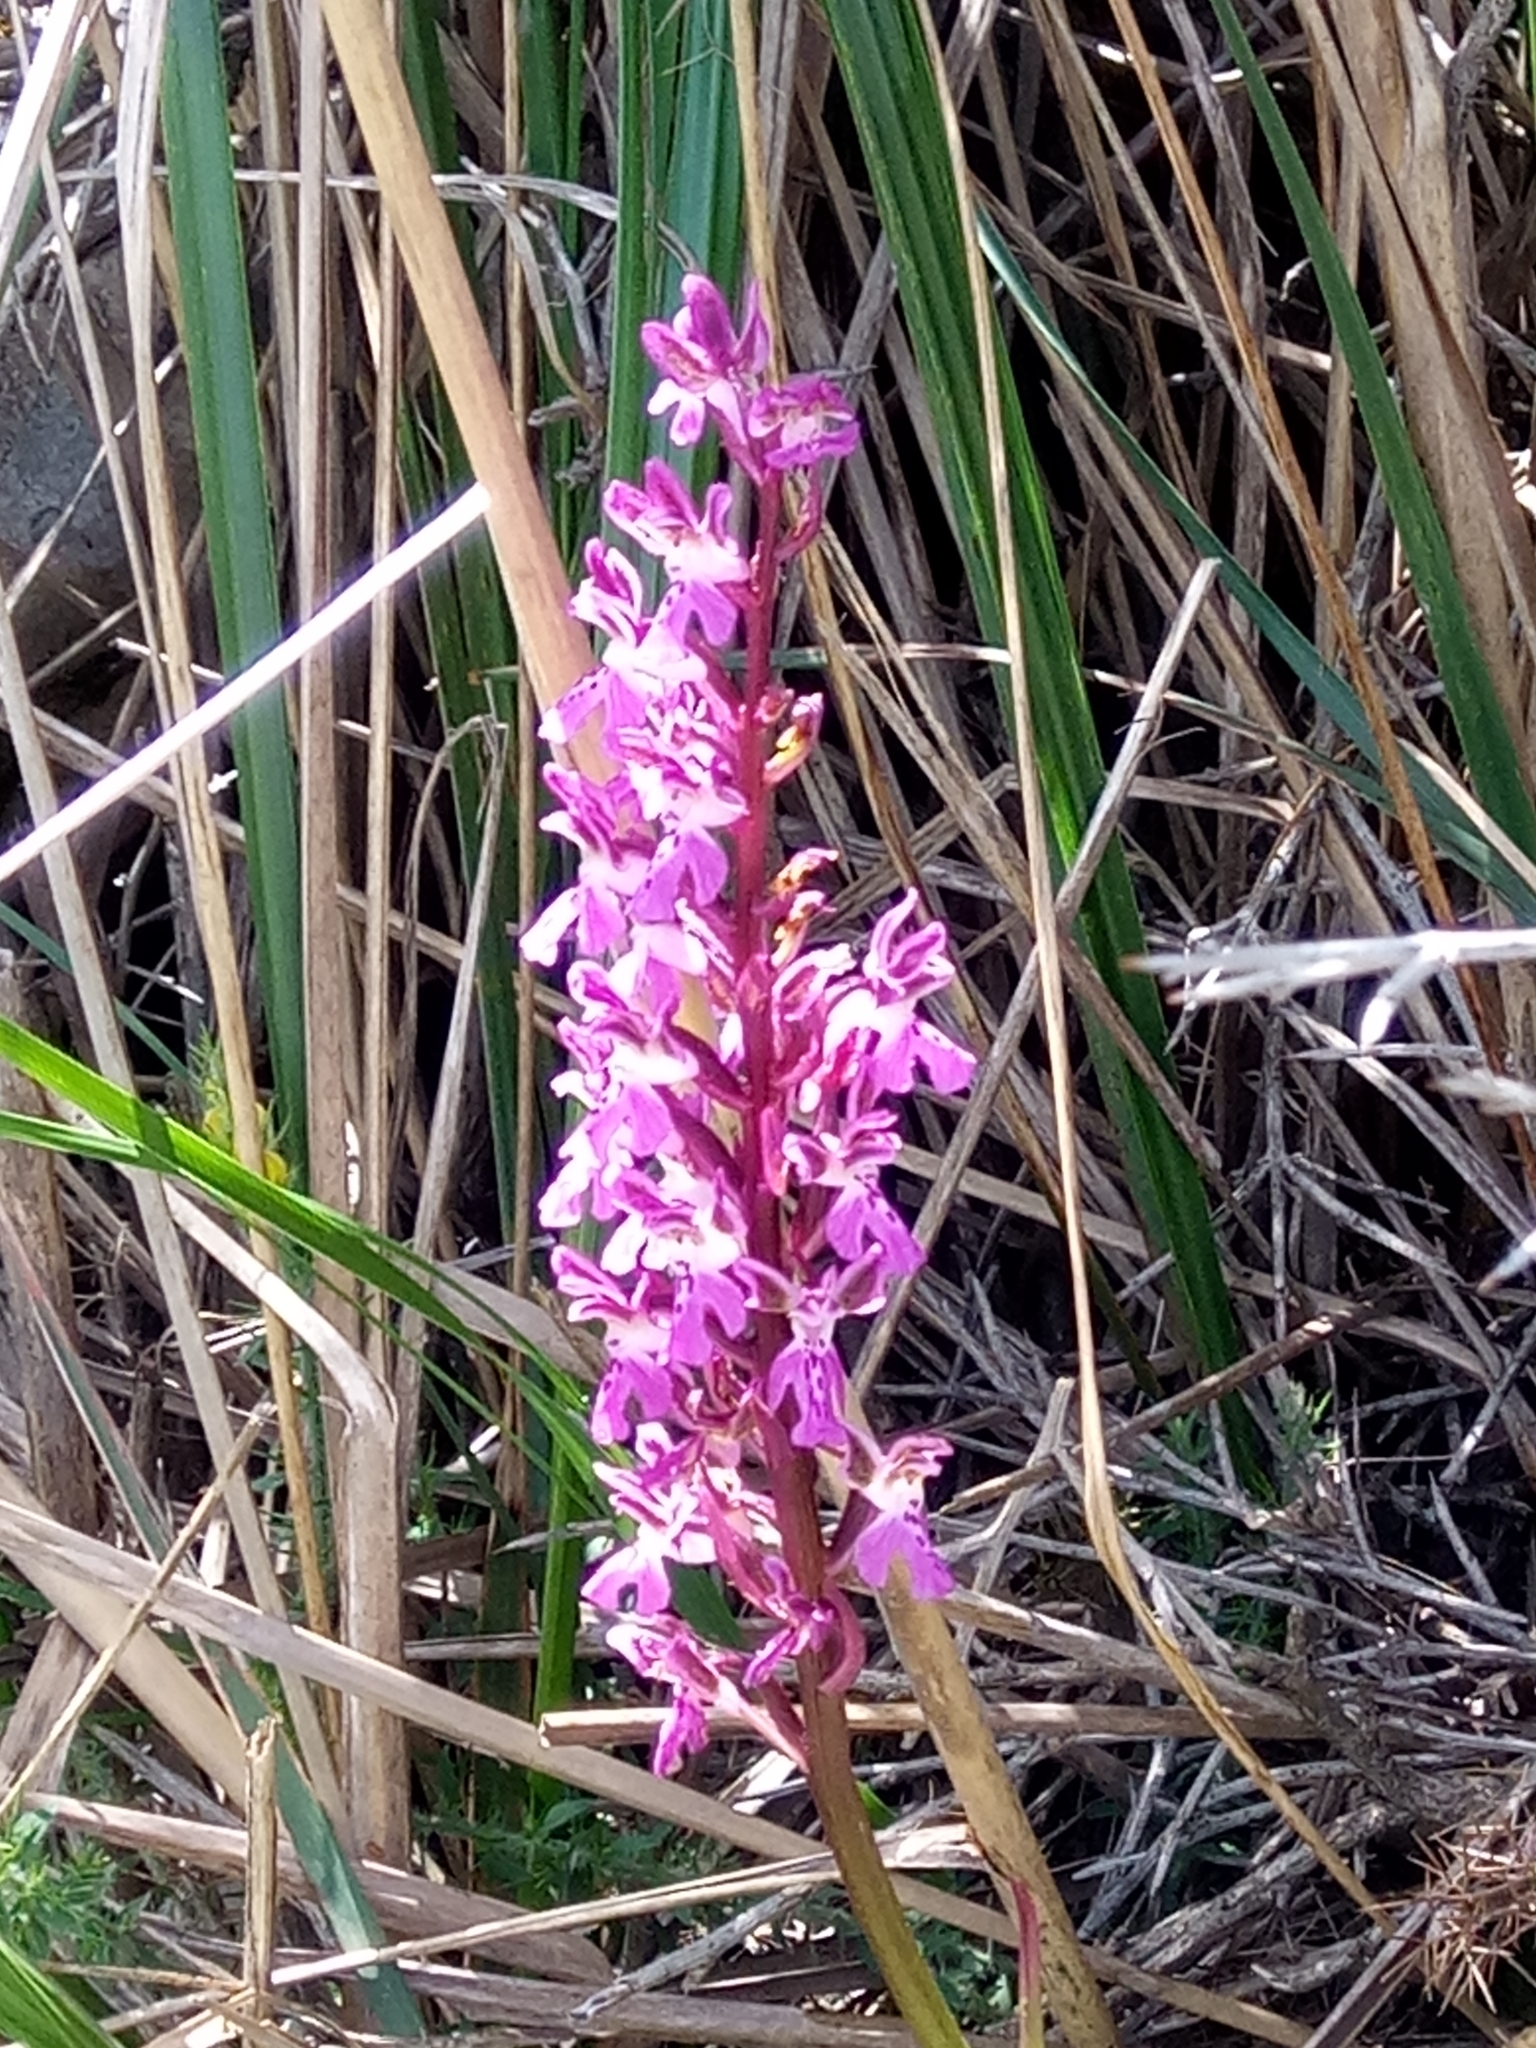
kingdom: Plantae
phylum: Tracheophyta
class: Liliopsida
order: Asparagales
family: Orchidaceae
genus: Orchis
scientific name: Orchis patens
